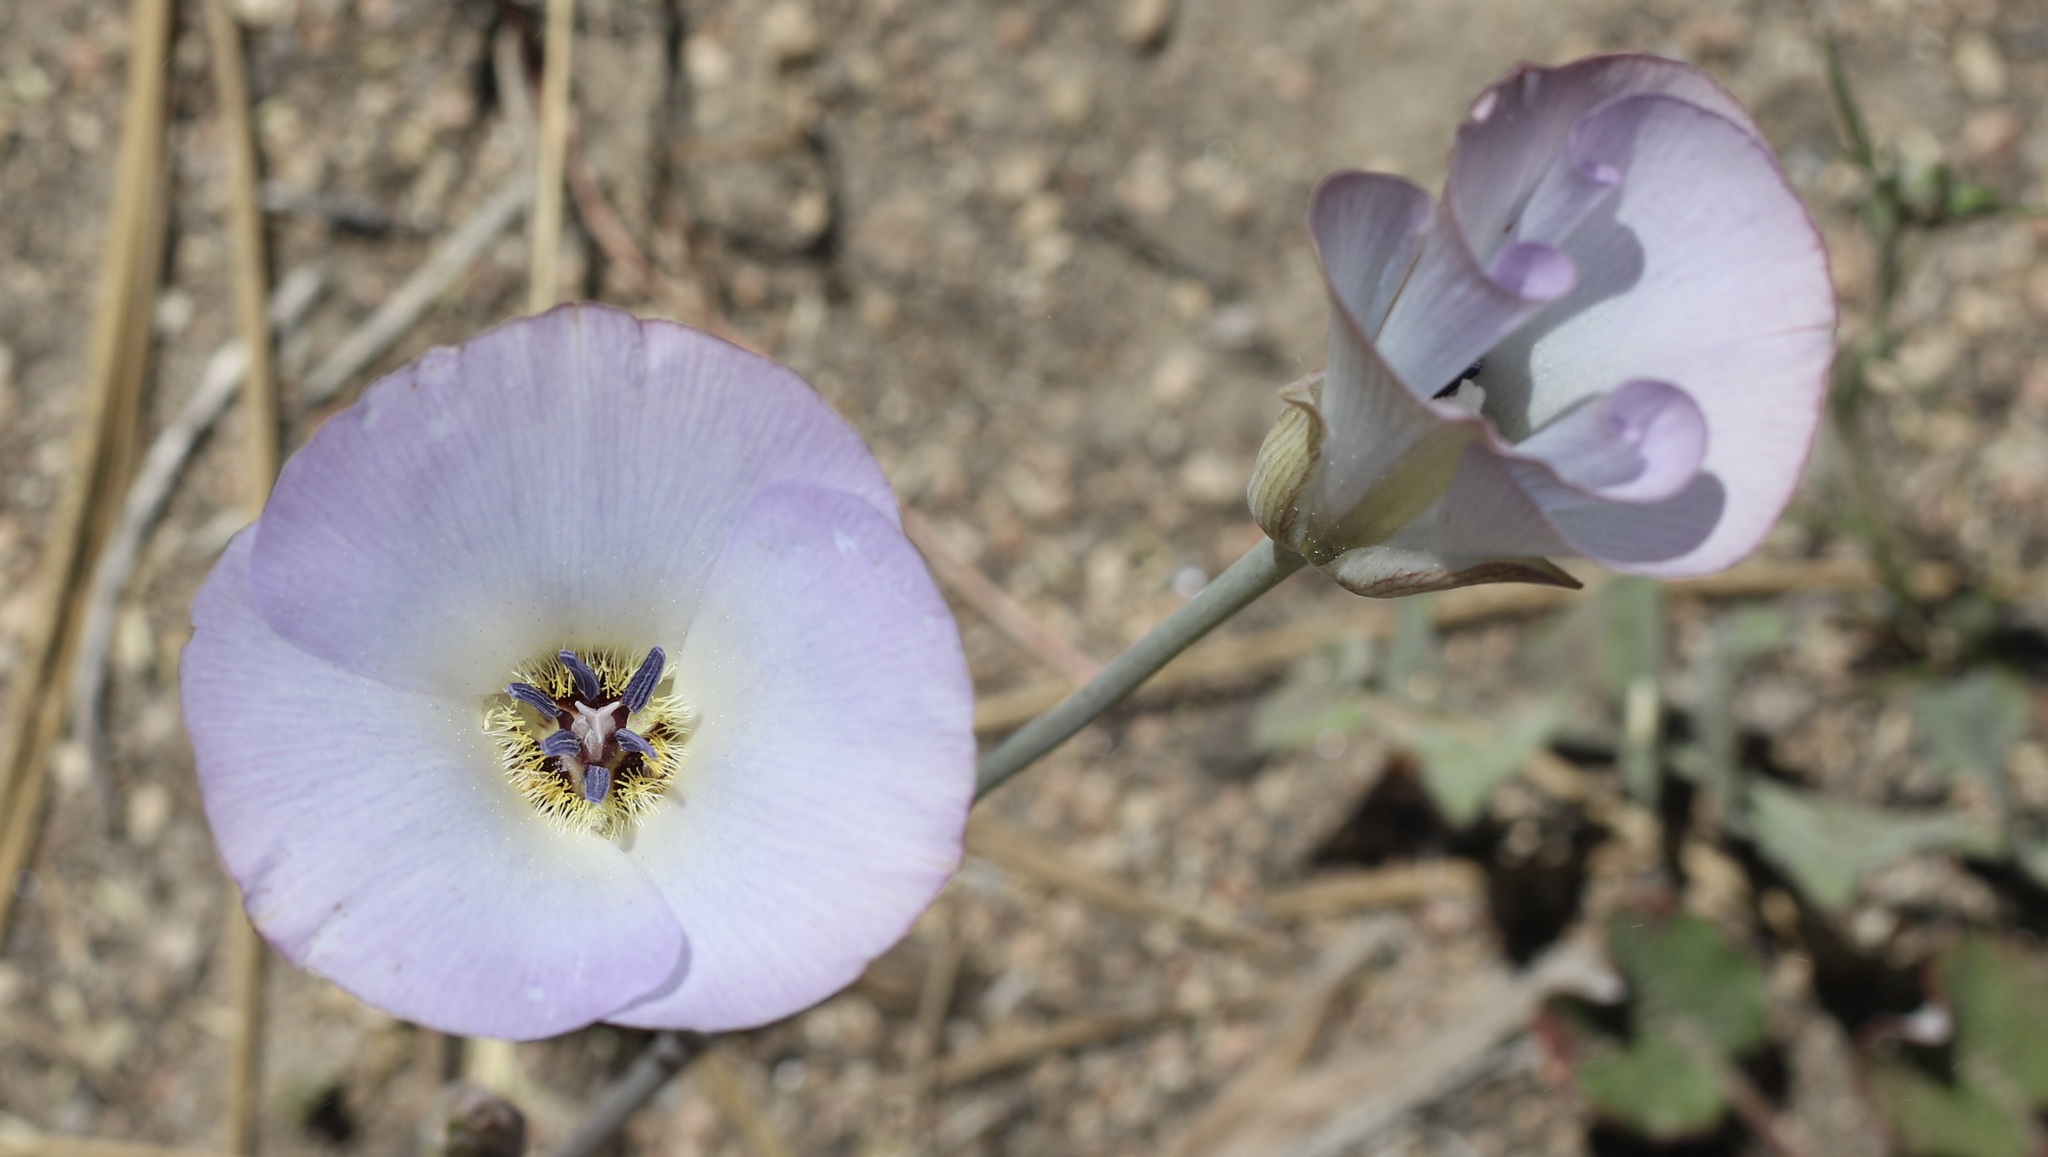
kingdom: Plantae
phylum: Tracheophyta
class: Liliopsida
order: Liliales
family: Liliaceae
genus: Calochortus
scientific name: Calochortus invenustus
